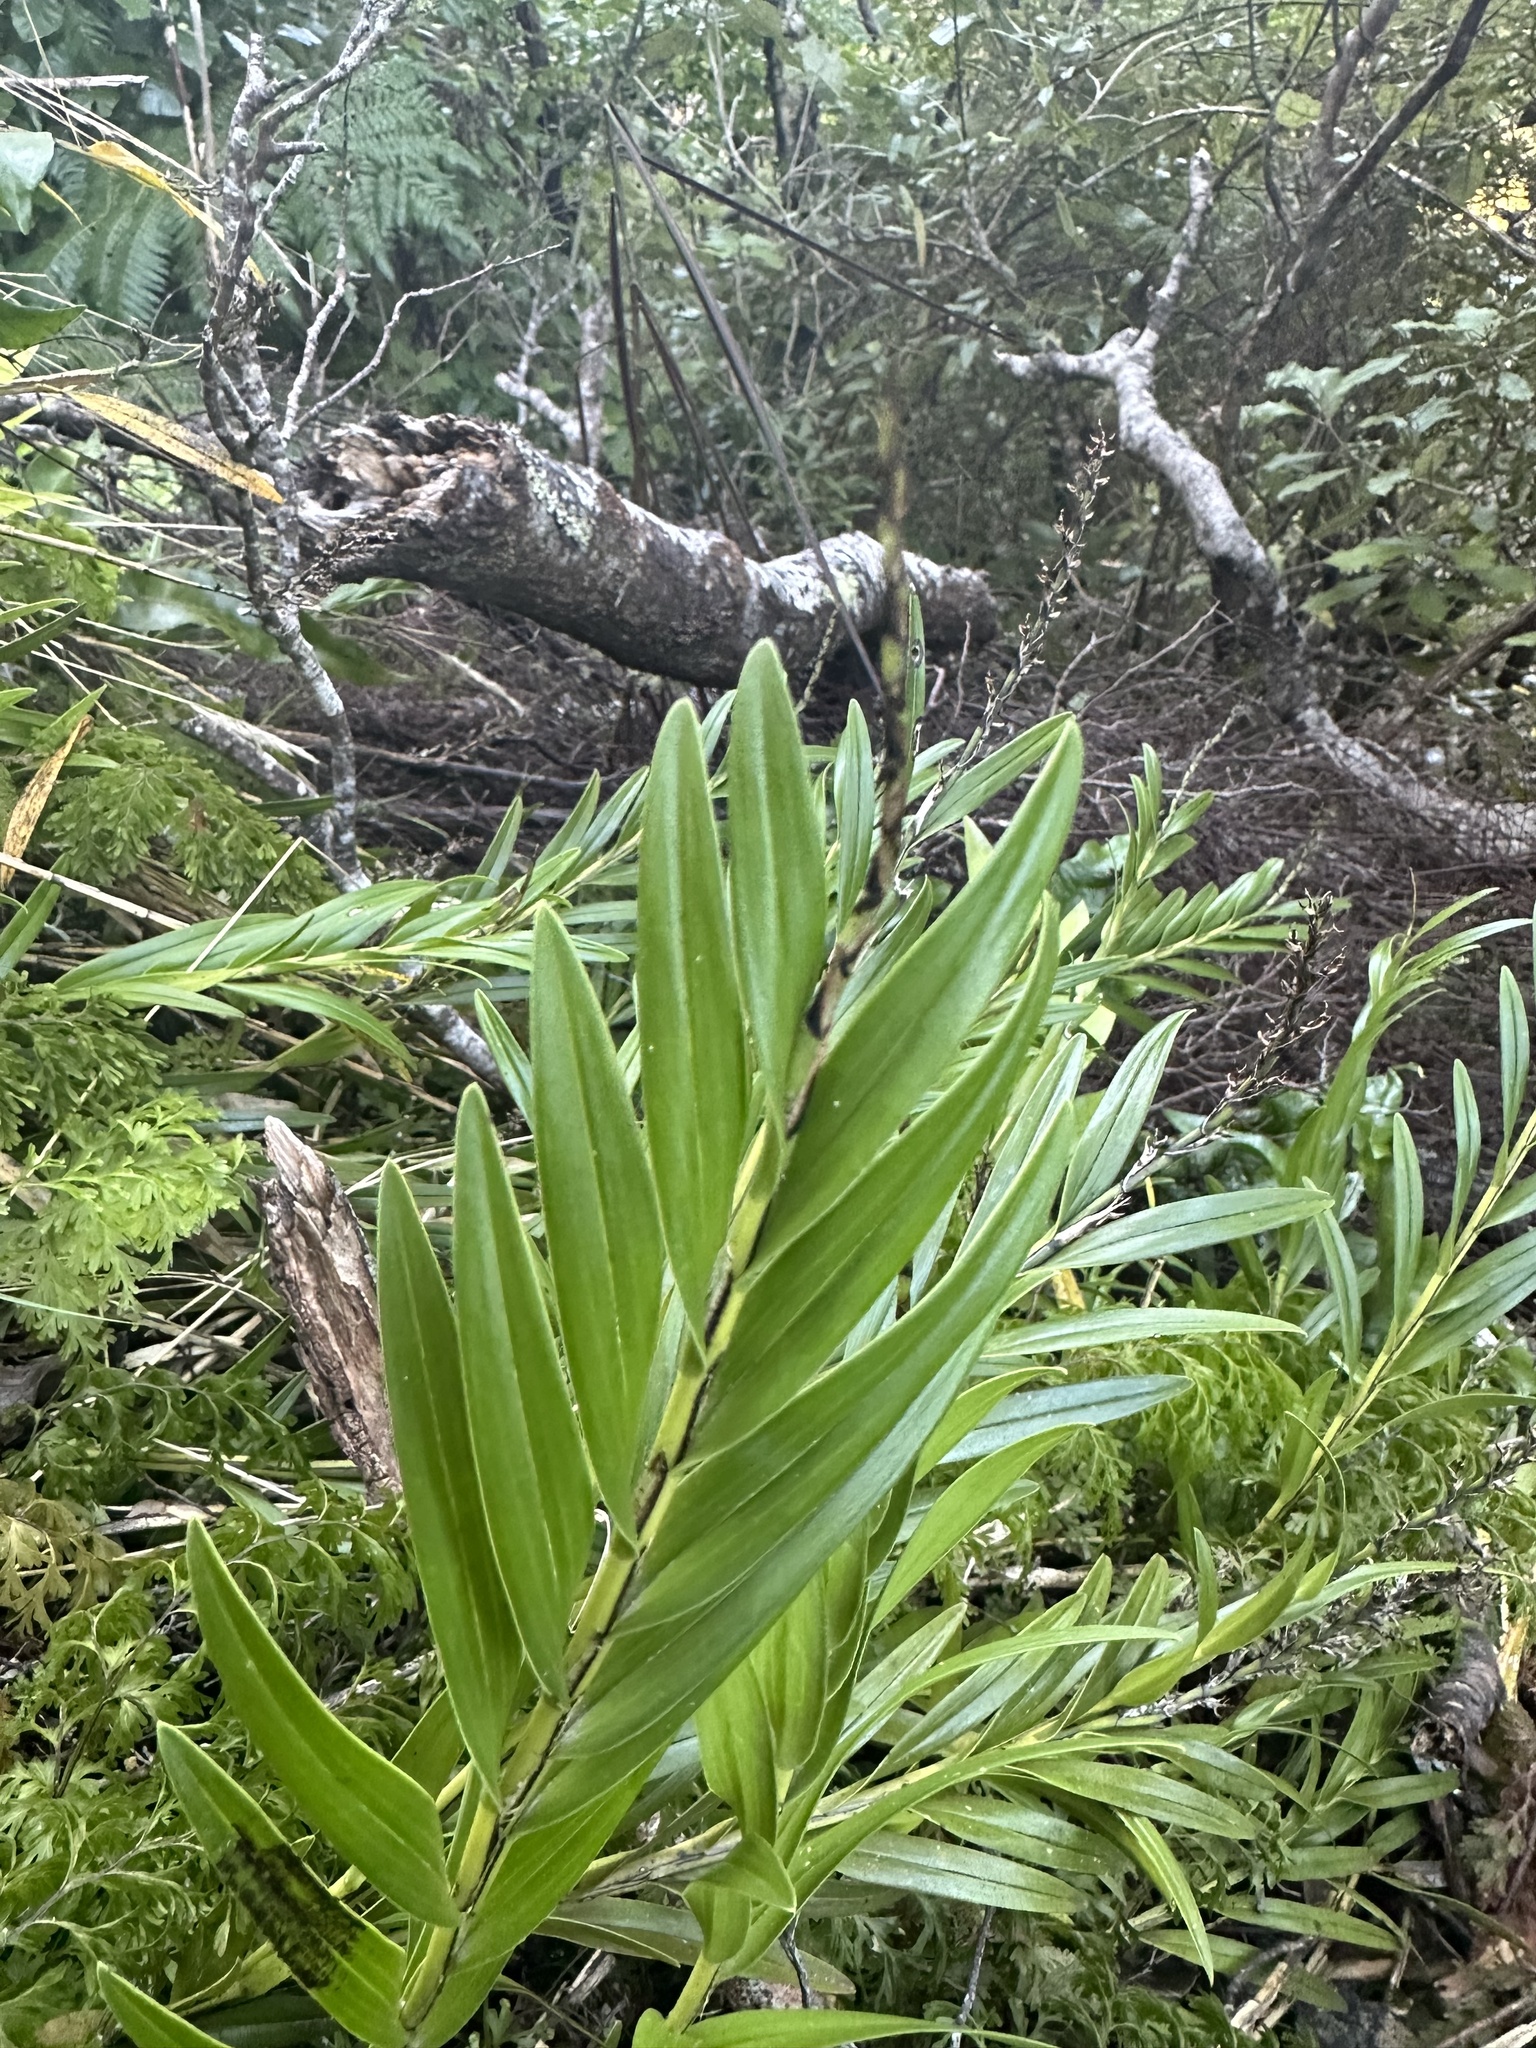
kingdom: Plantae
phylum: Tracheophyta
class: Liliopsida
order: Asparagales
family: Orchidaceae
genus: Earina
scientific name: Earina autumnalis
